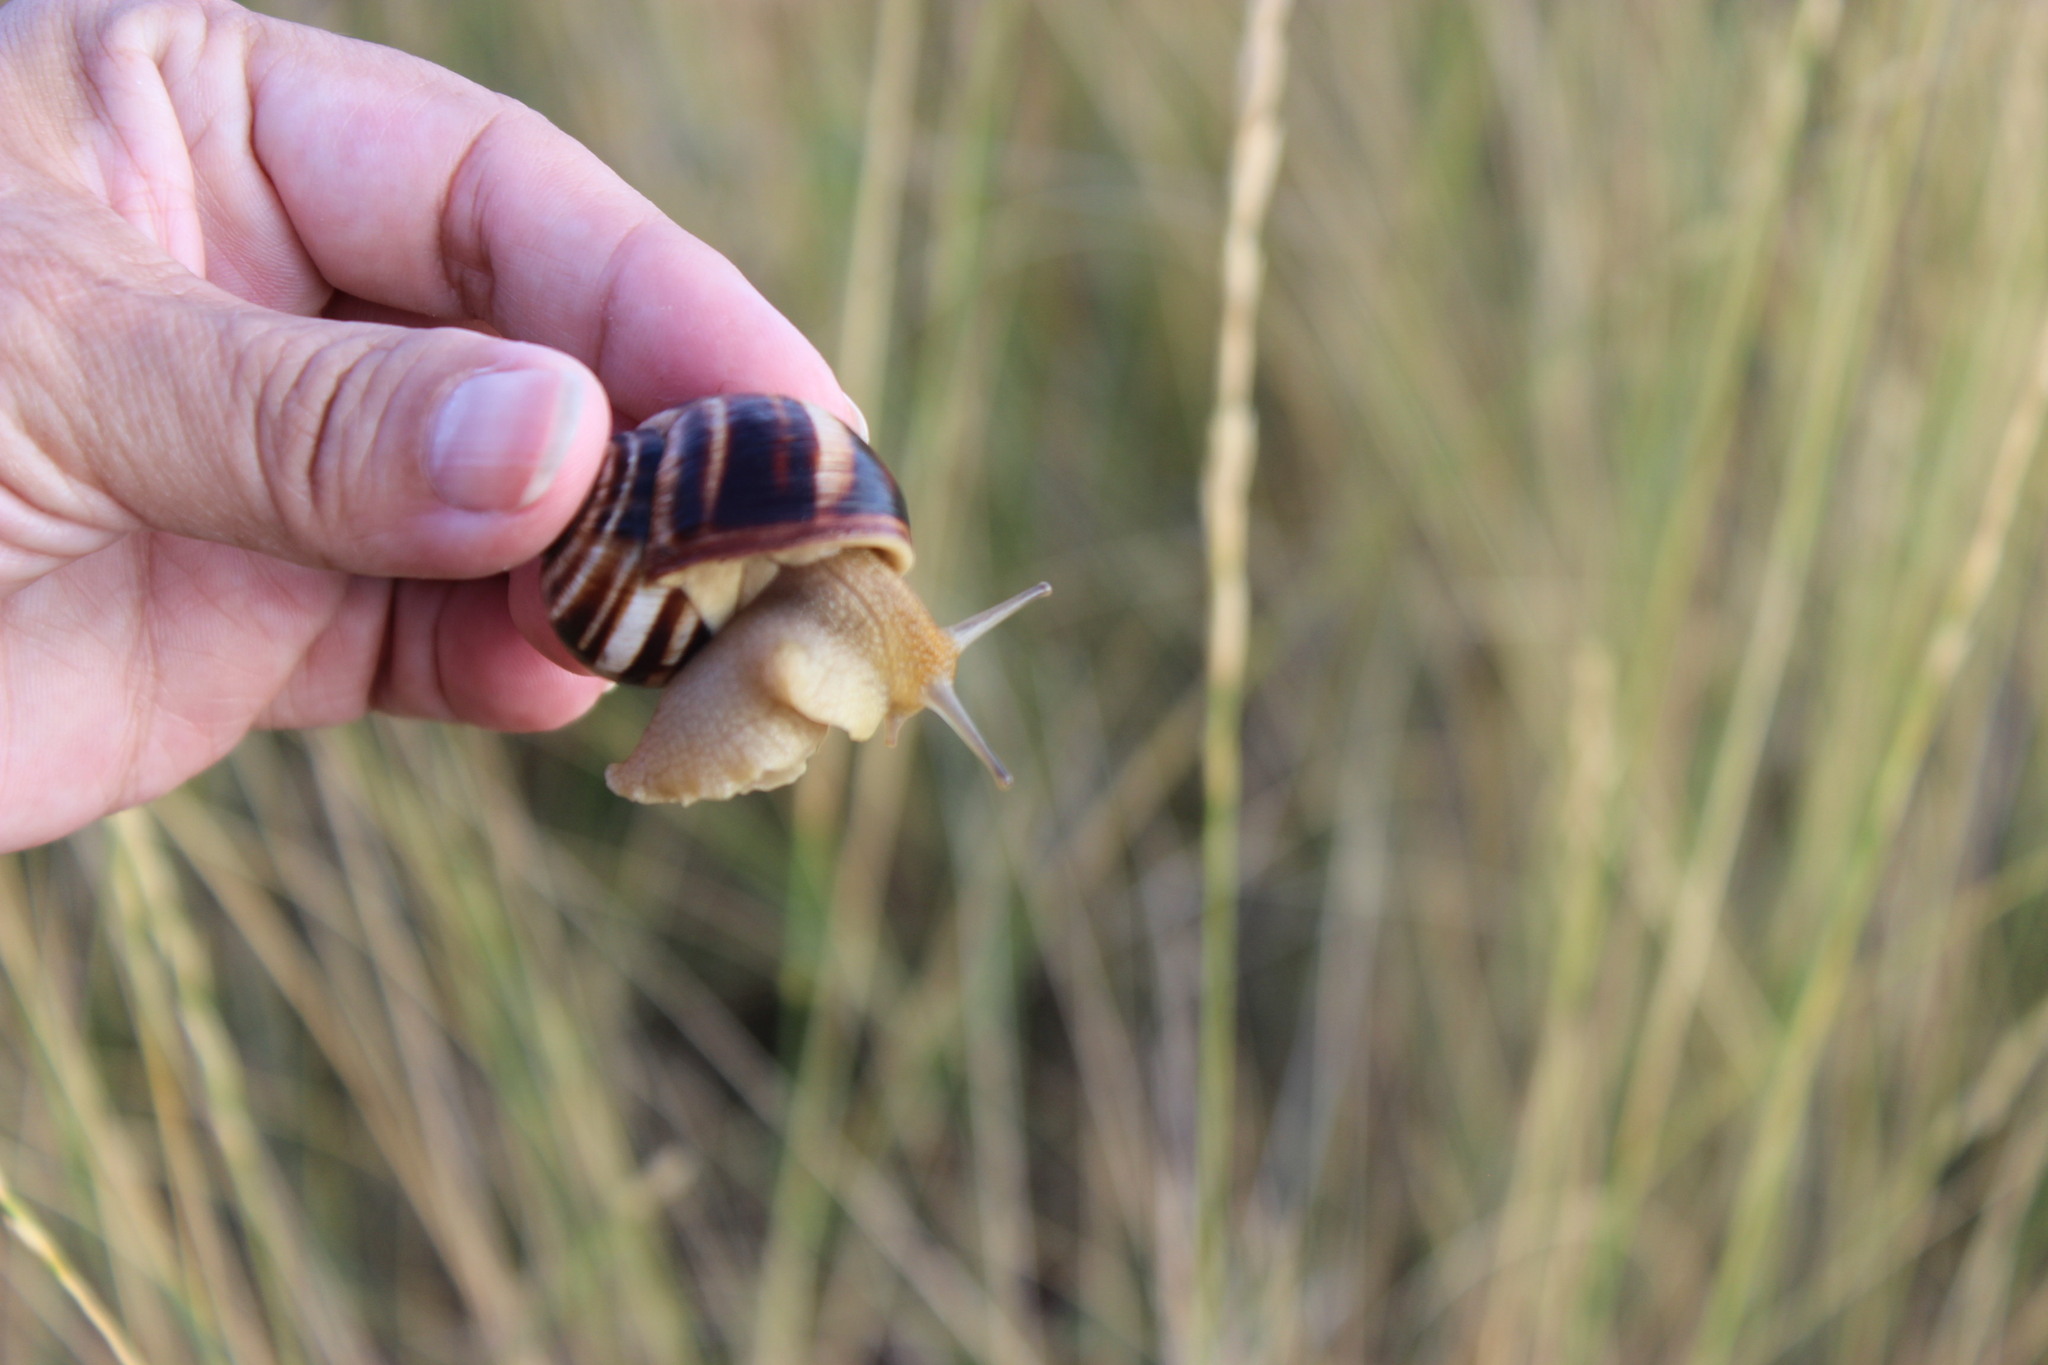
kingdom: Animalia
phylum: Mollusca
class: Gastropoda
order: Stylommatophora
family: Helicidae
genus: Helix
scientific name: Helix albescens
